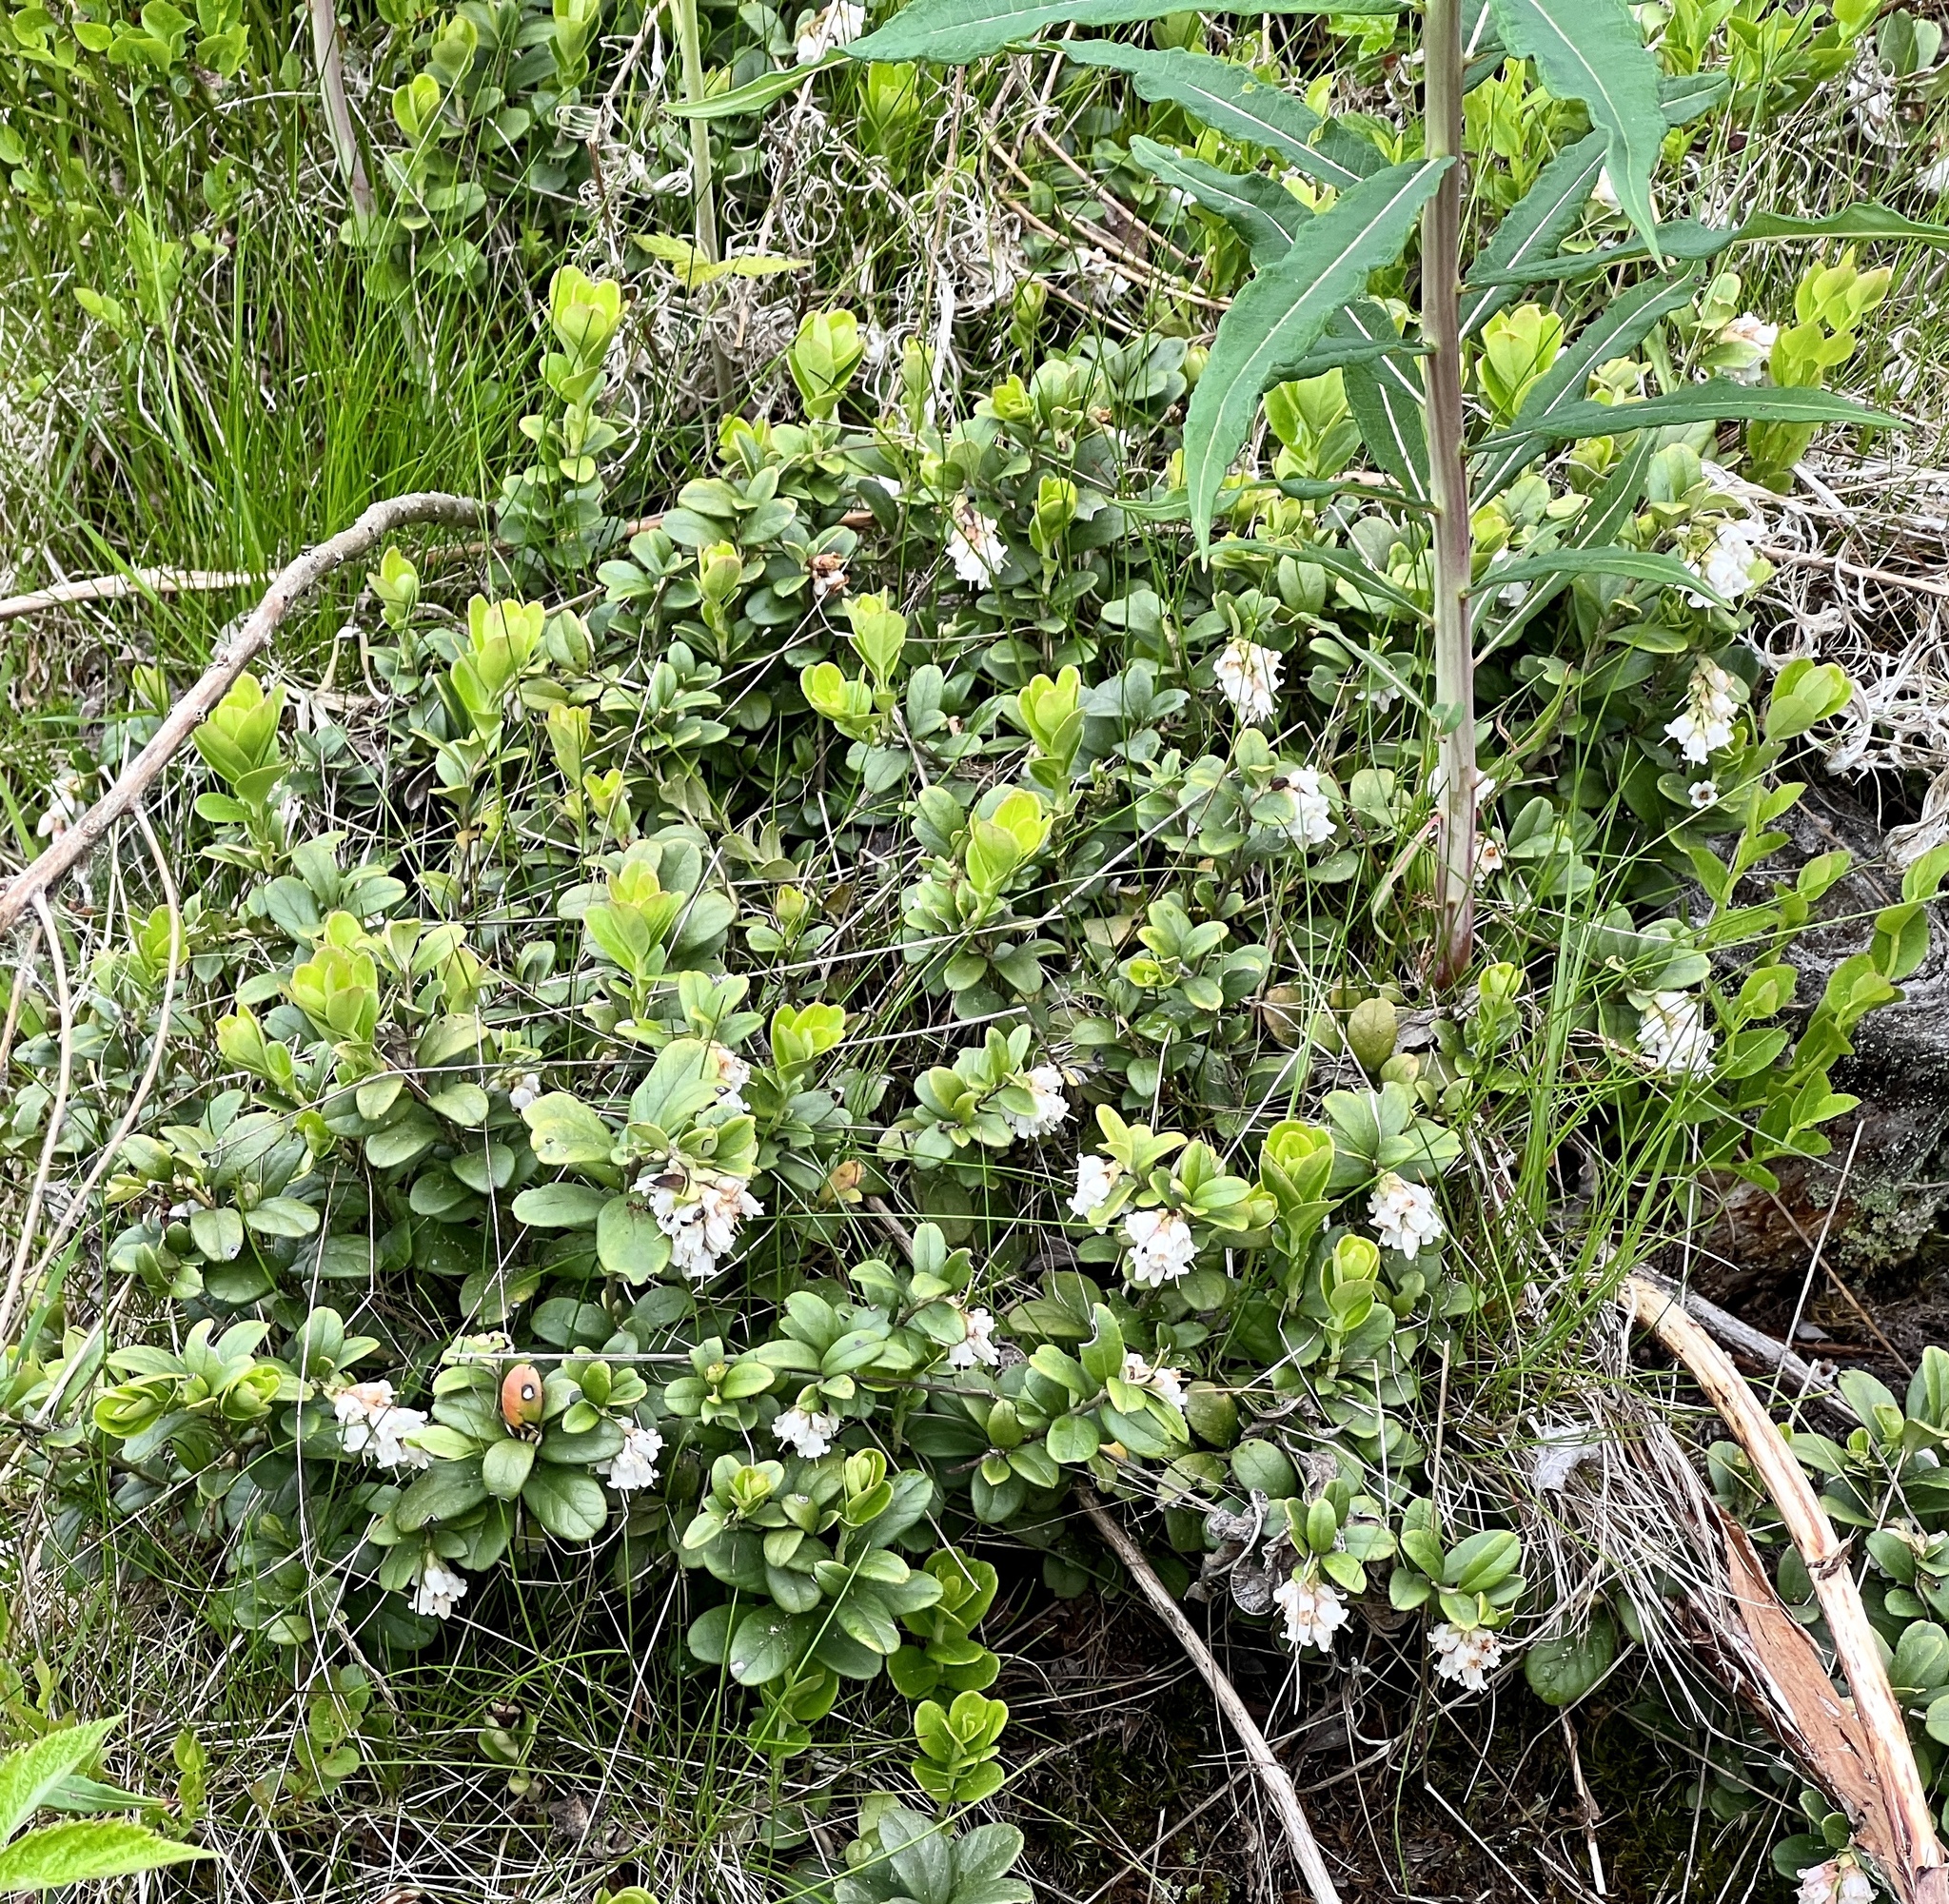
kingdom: Plantae
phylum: Tracheophyta
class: Magnoliopsida
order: Ericales
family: Ericaceae
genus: Vaccinium
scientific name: Vaccinium vitis-idaea
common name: Cowberry
